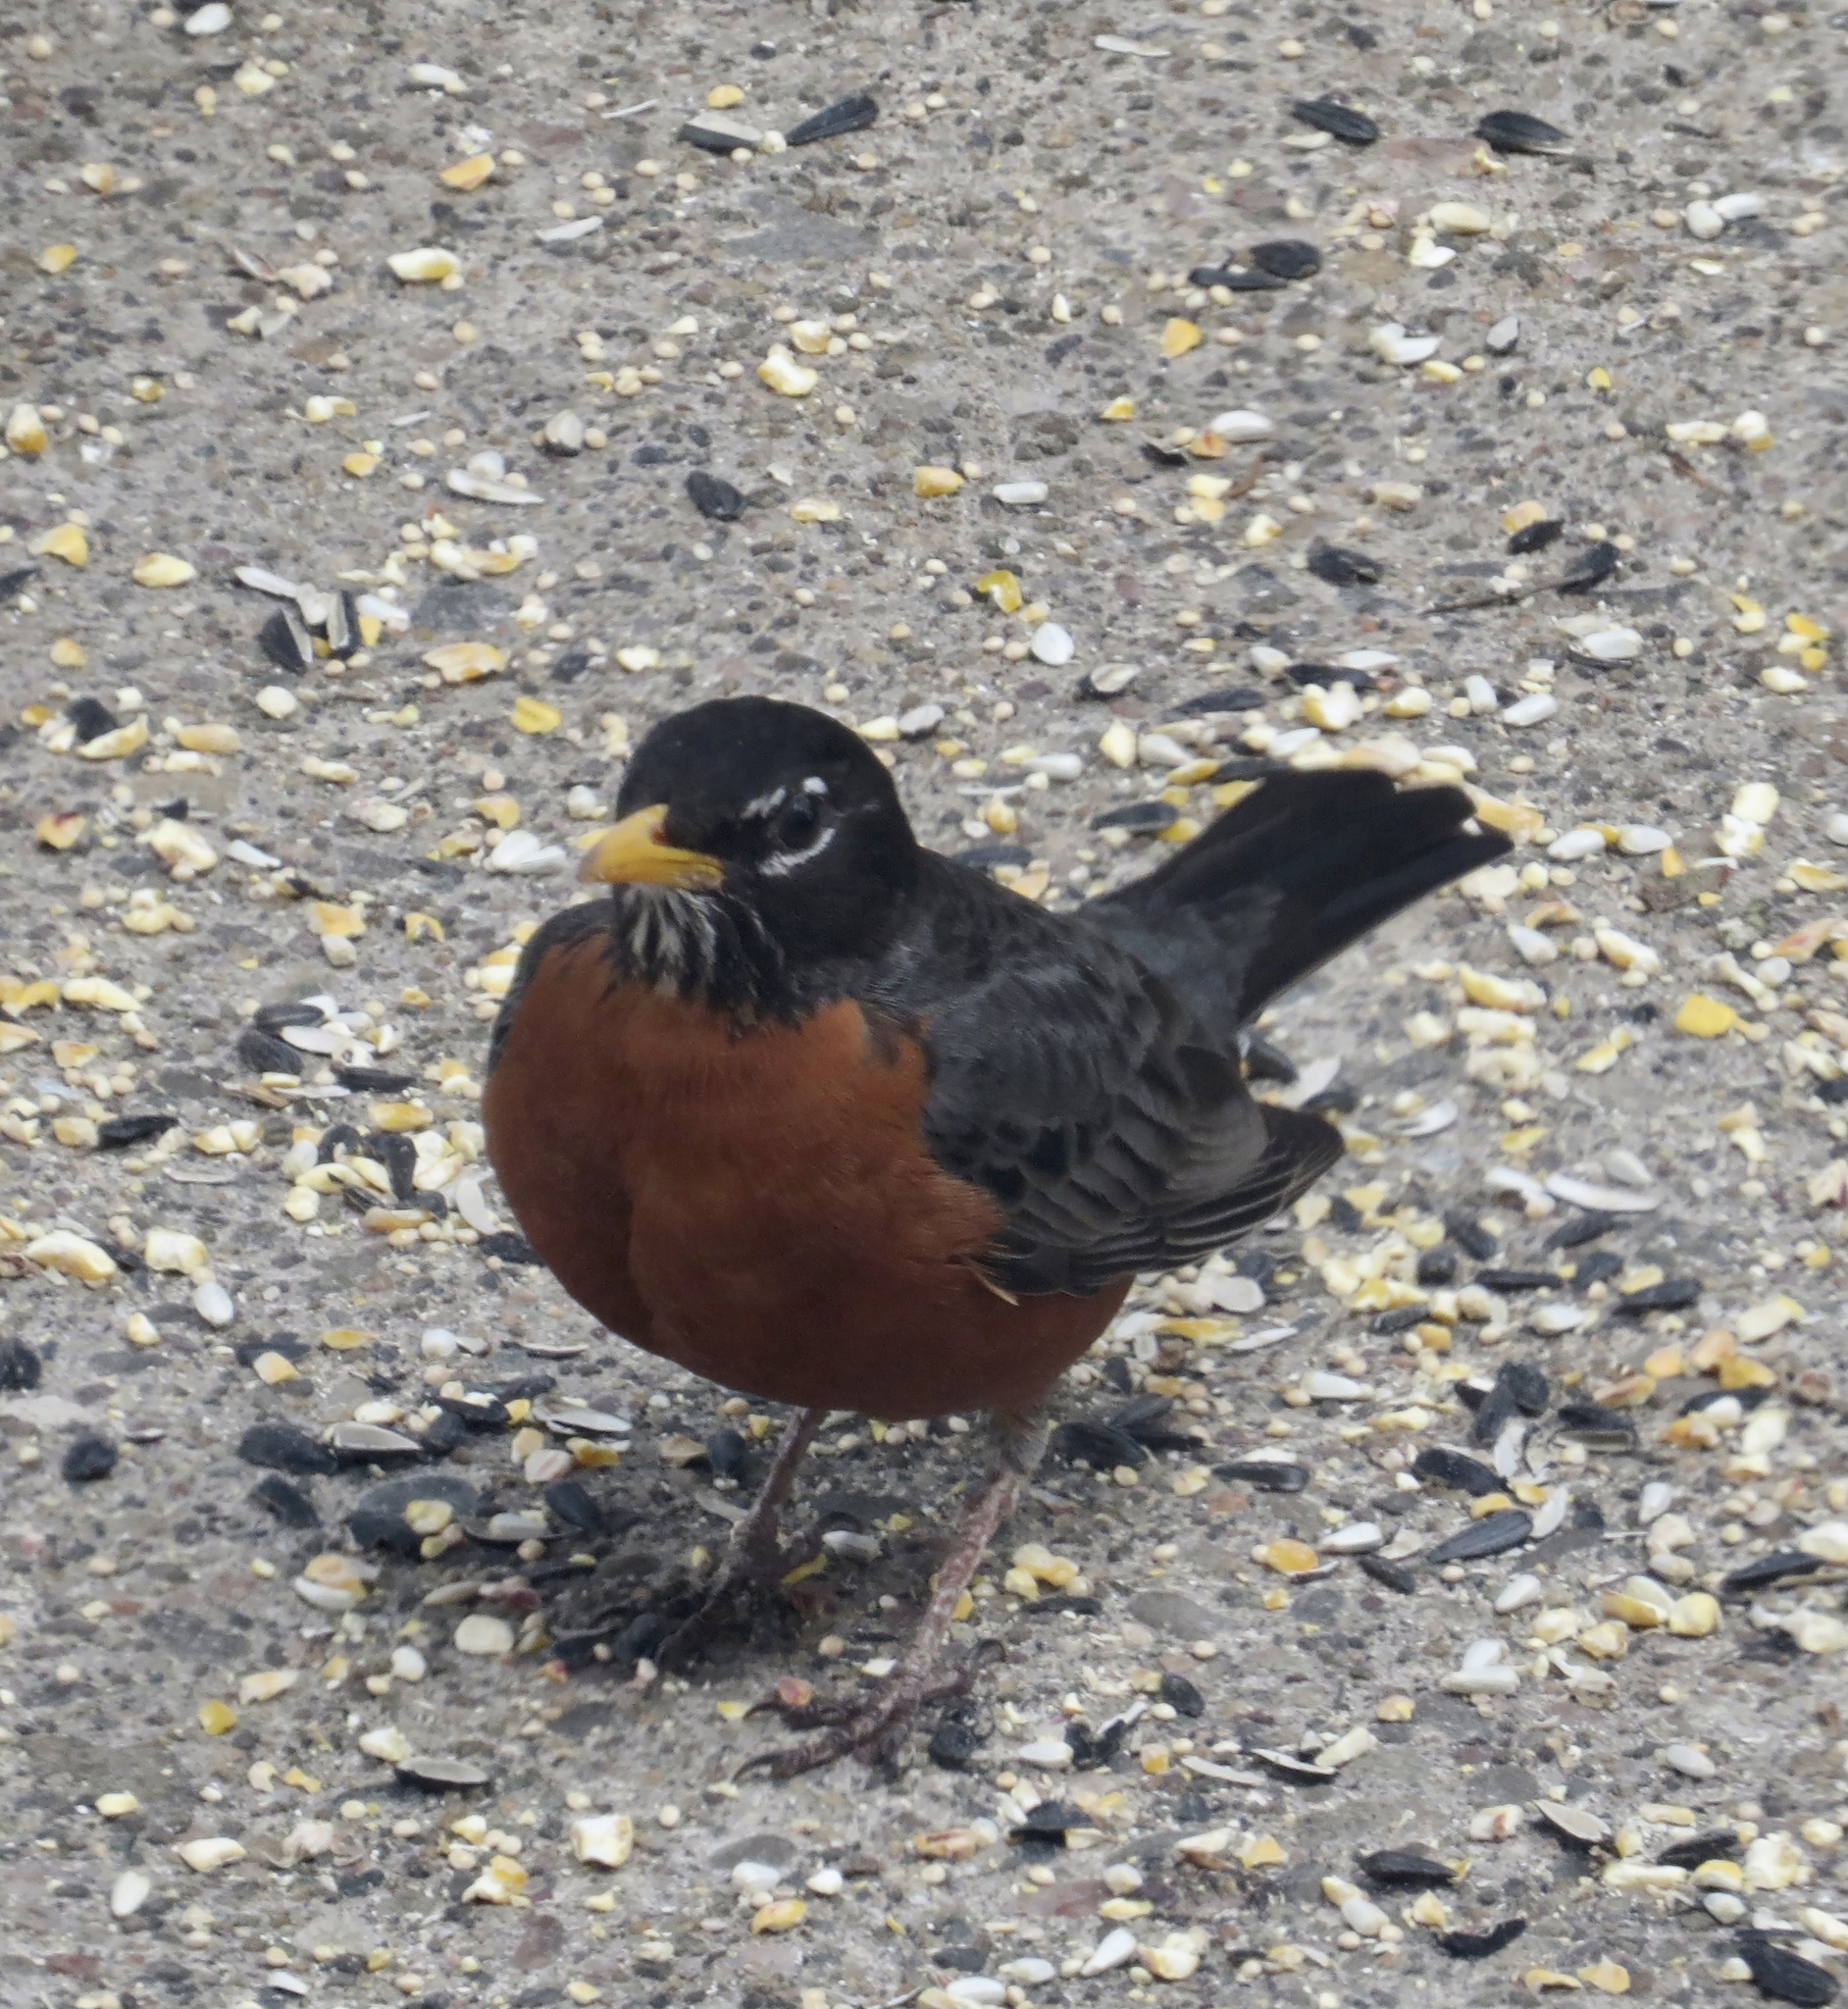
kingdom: Animalia
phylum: Chordata
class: Aves
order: Passeriformes
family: Turdidae
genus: Turdus
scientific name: Turdus migratorius
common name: American robin
